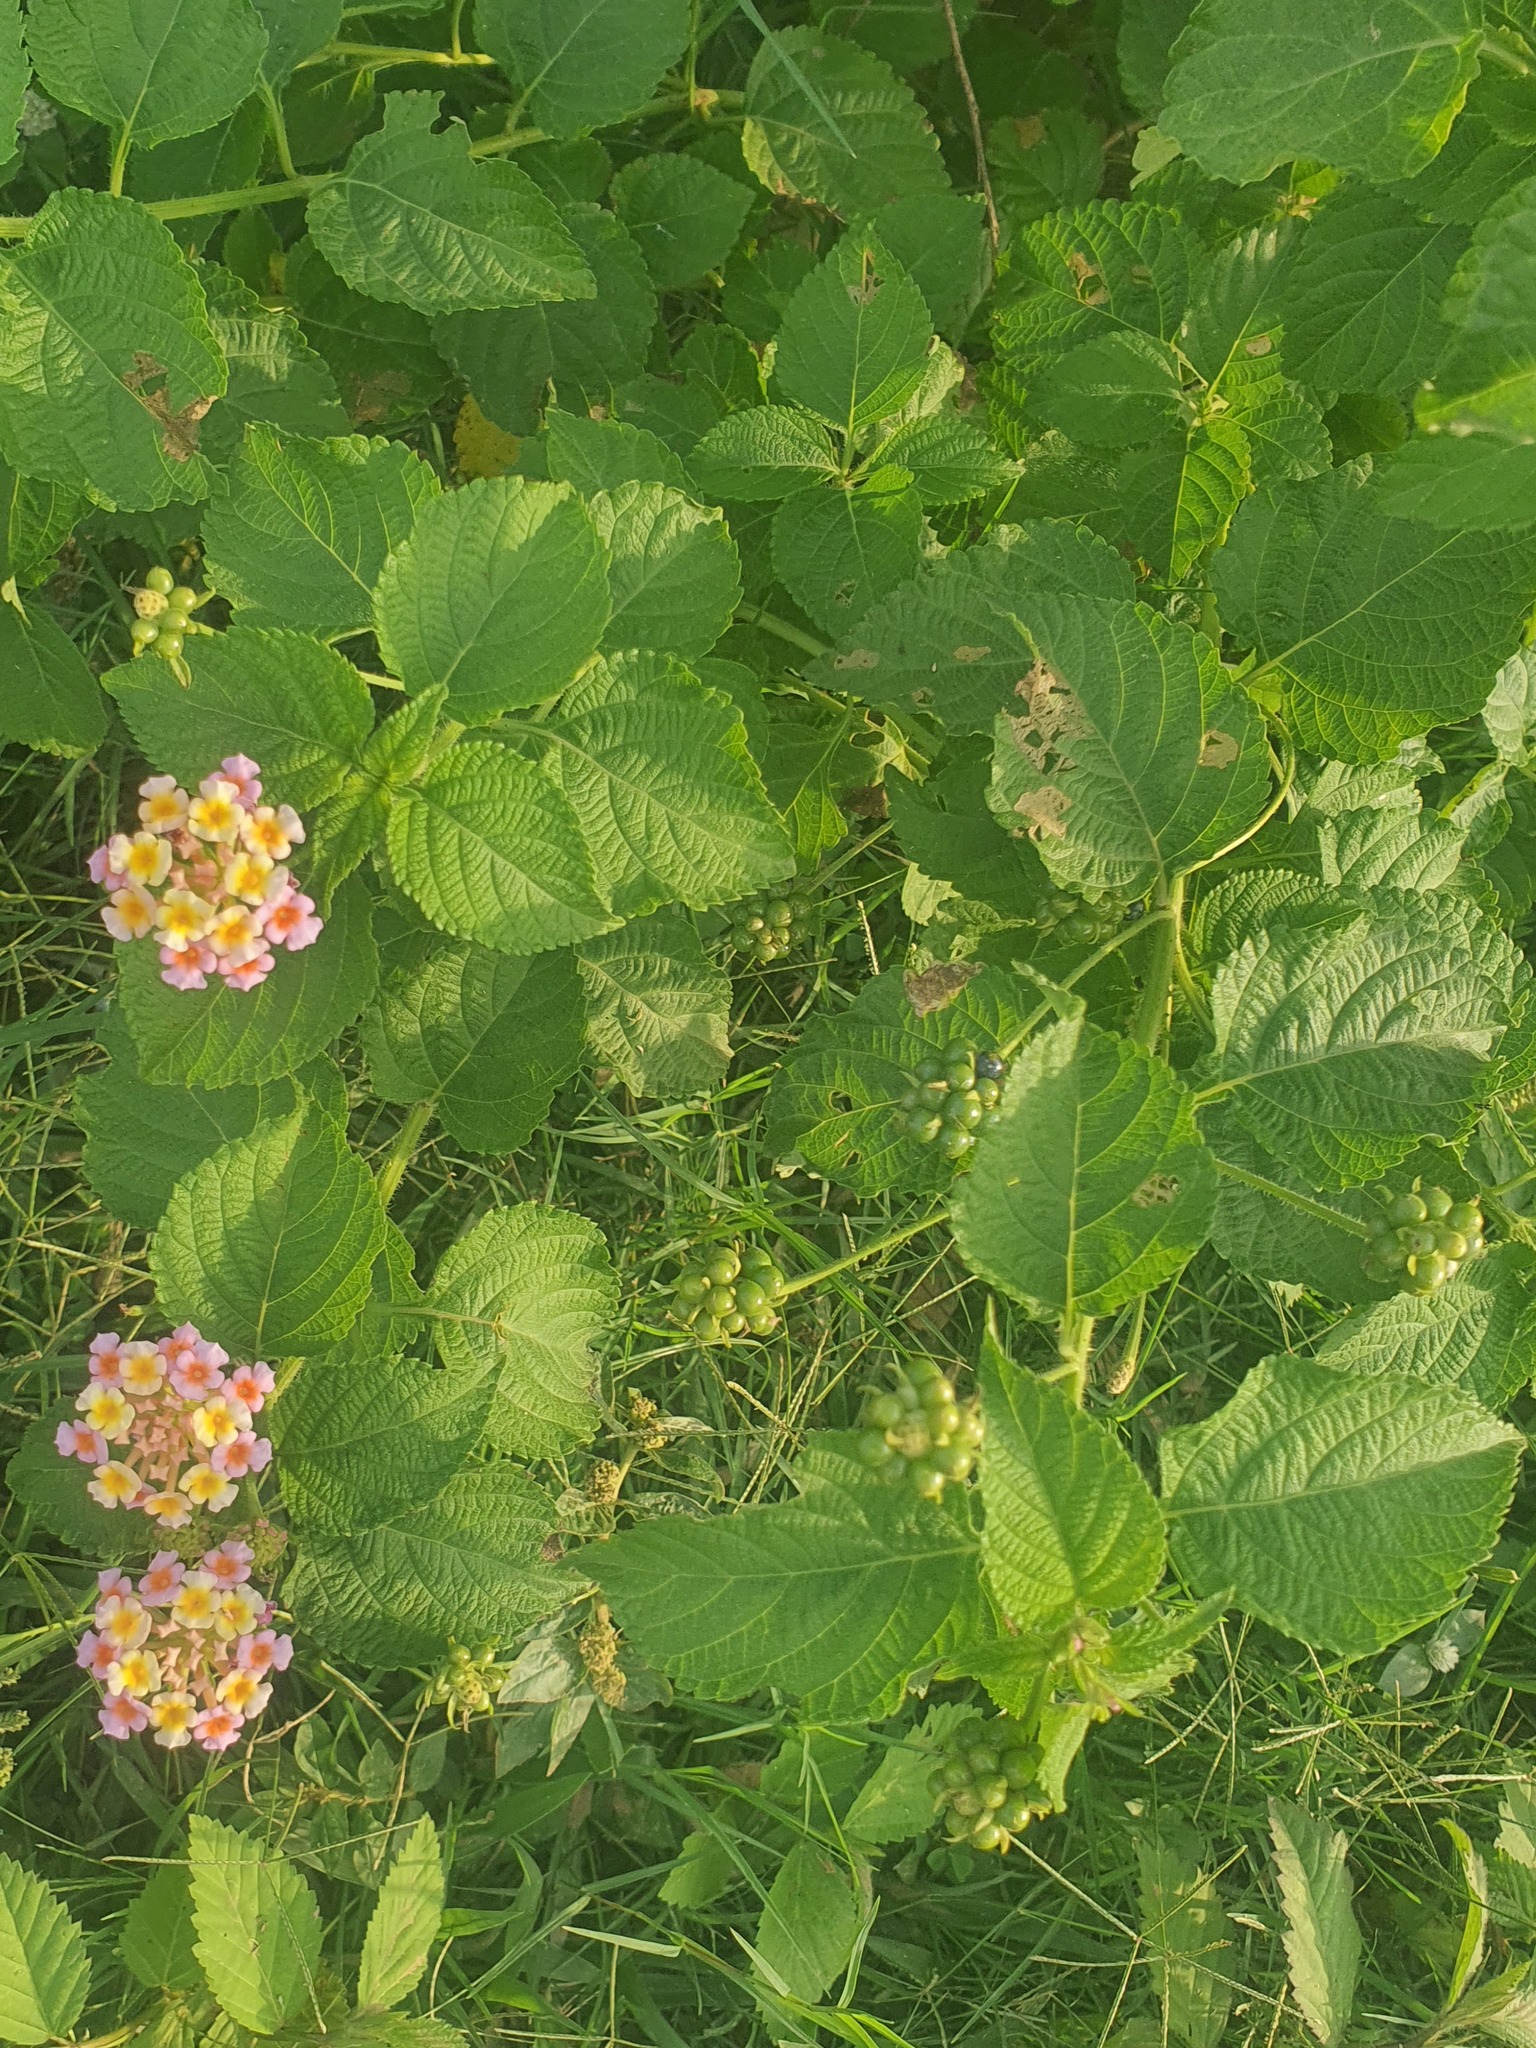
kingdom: Plantae
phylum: Tracheophyta
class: Magnoliopsida
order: Lamiales
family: Verbenaceae
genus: Lantana
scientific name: Lantana camara
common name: Lantana
